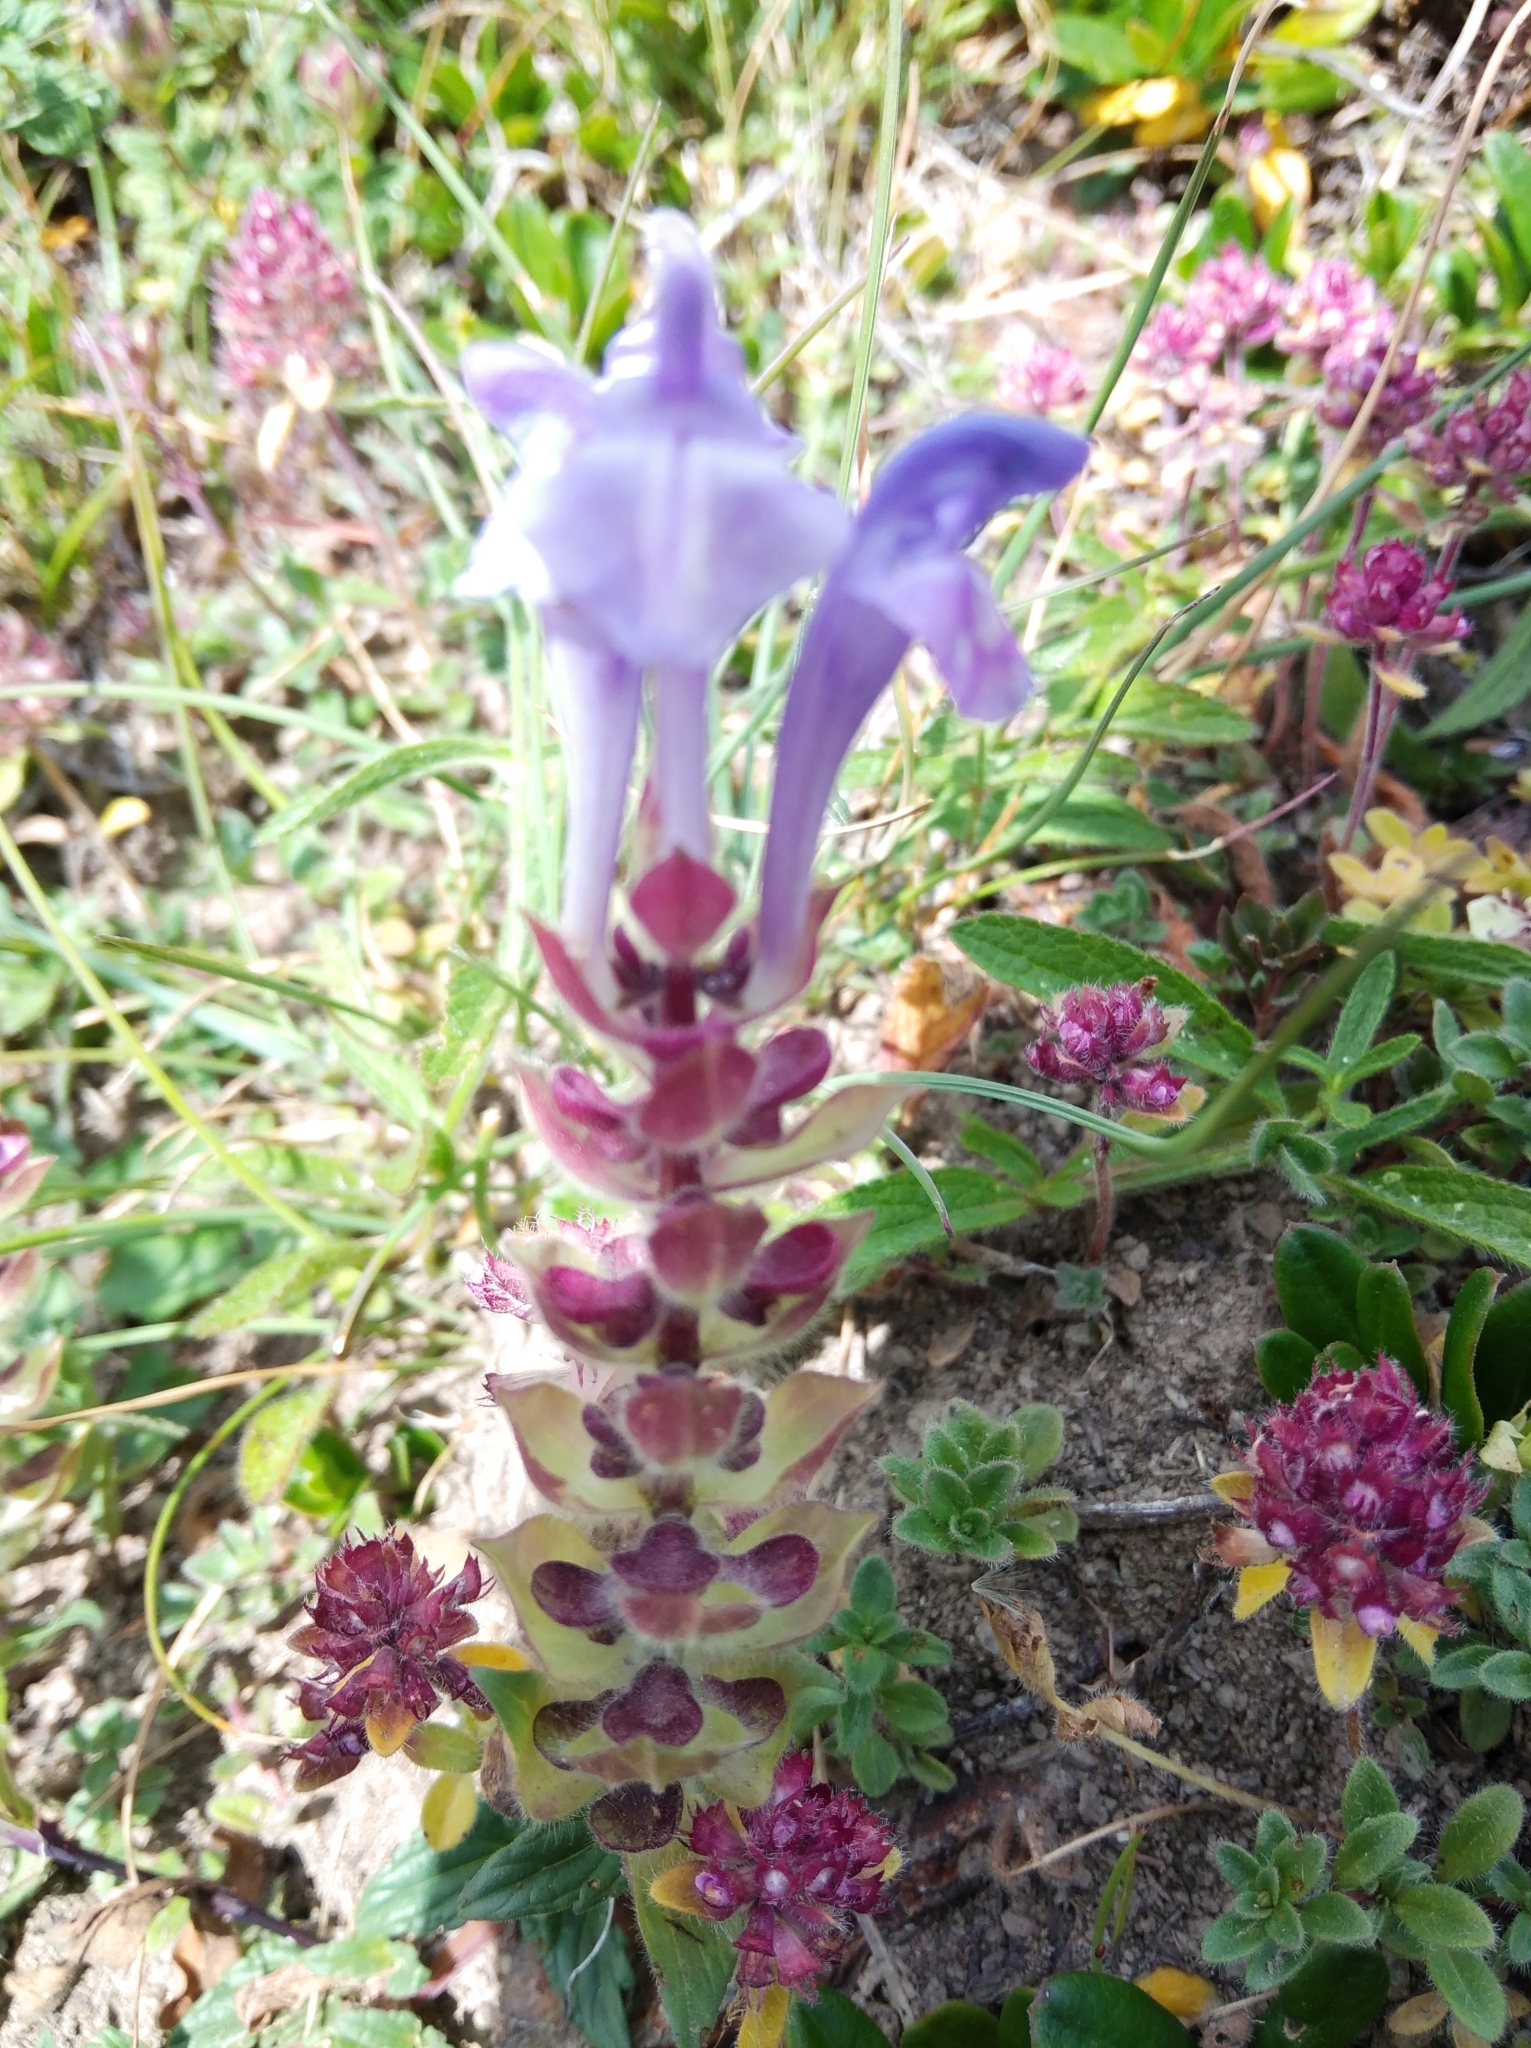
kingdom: Plantae
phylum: Tracheophyta
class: Magnoliopsida
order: Lamiales
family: Lamiaceae
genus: Scutellaria
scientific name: Scutellaria alpina
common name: Alpine scullcap
